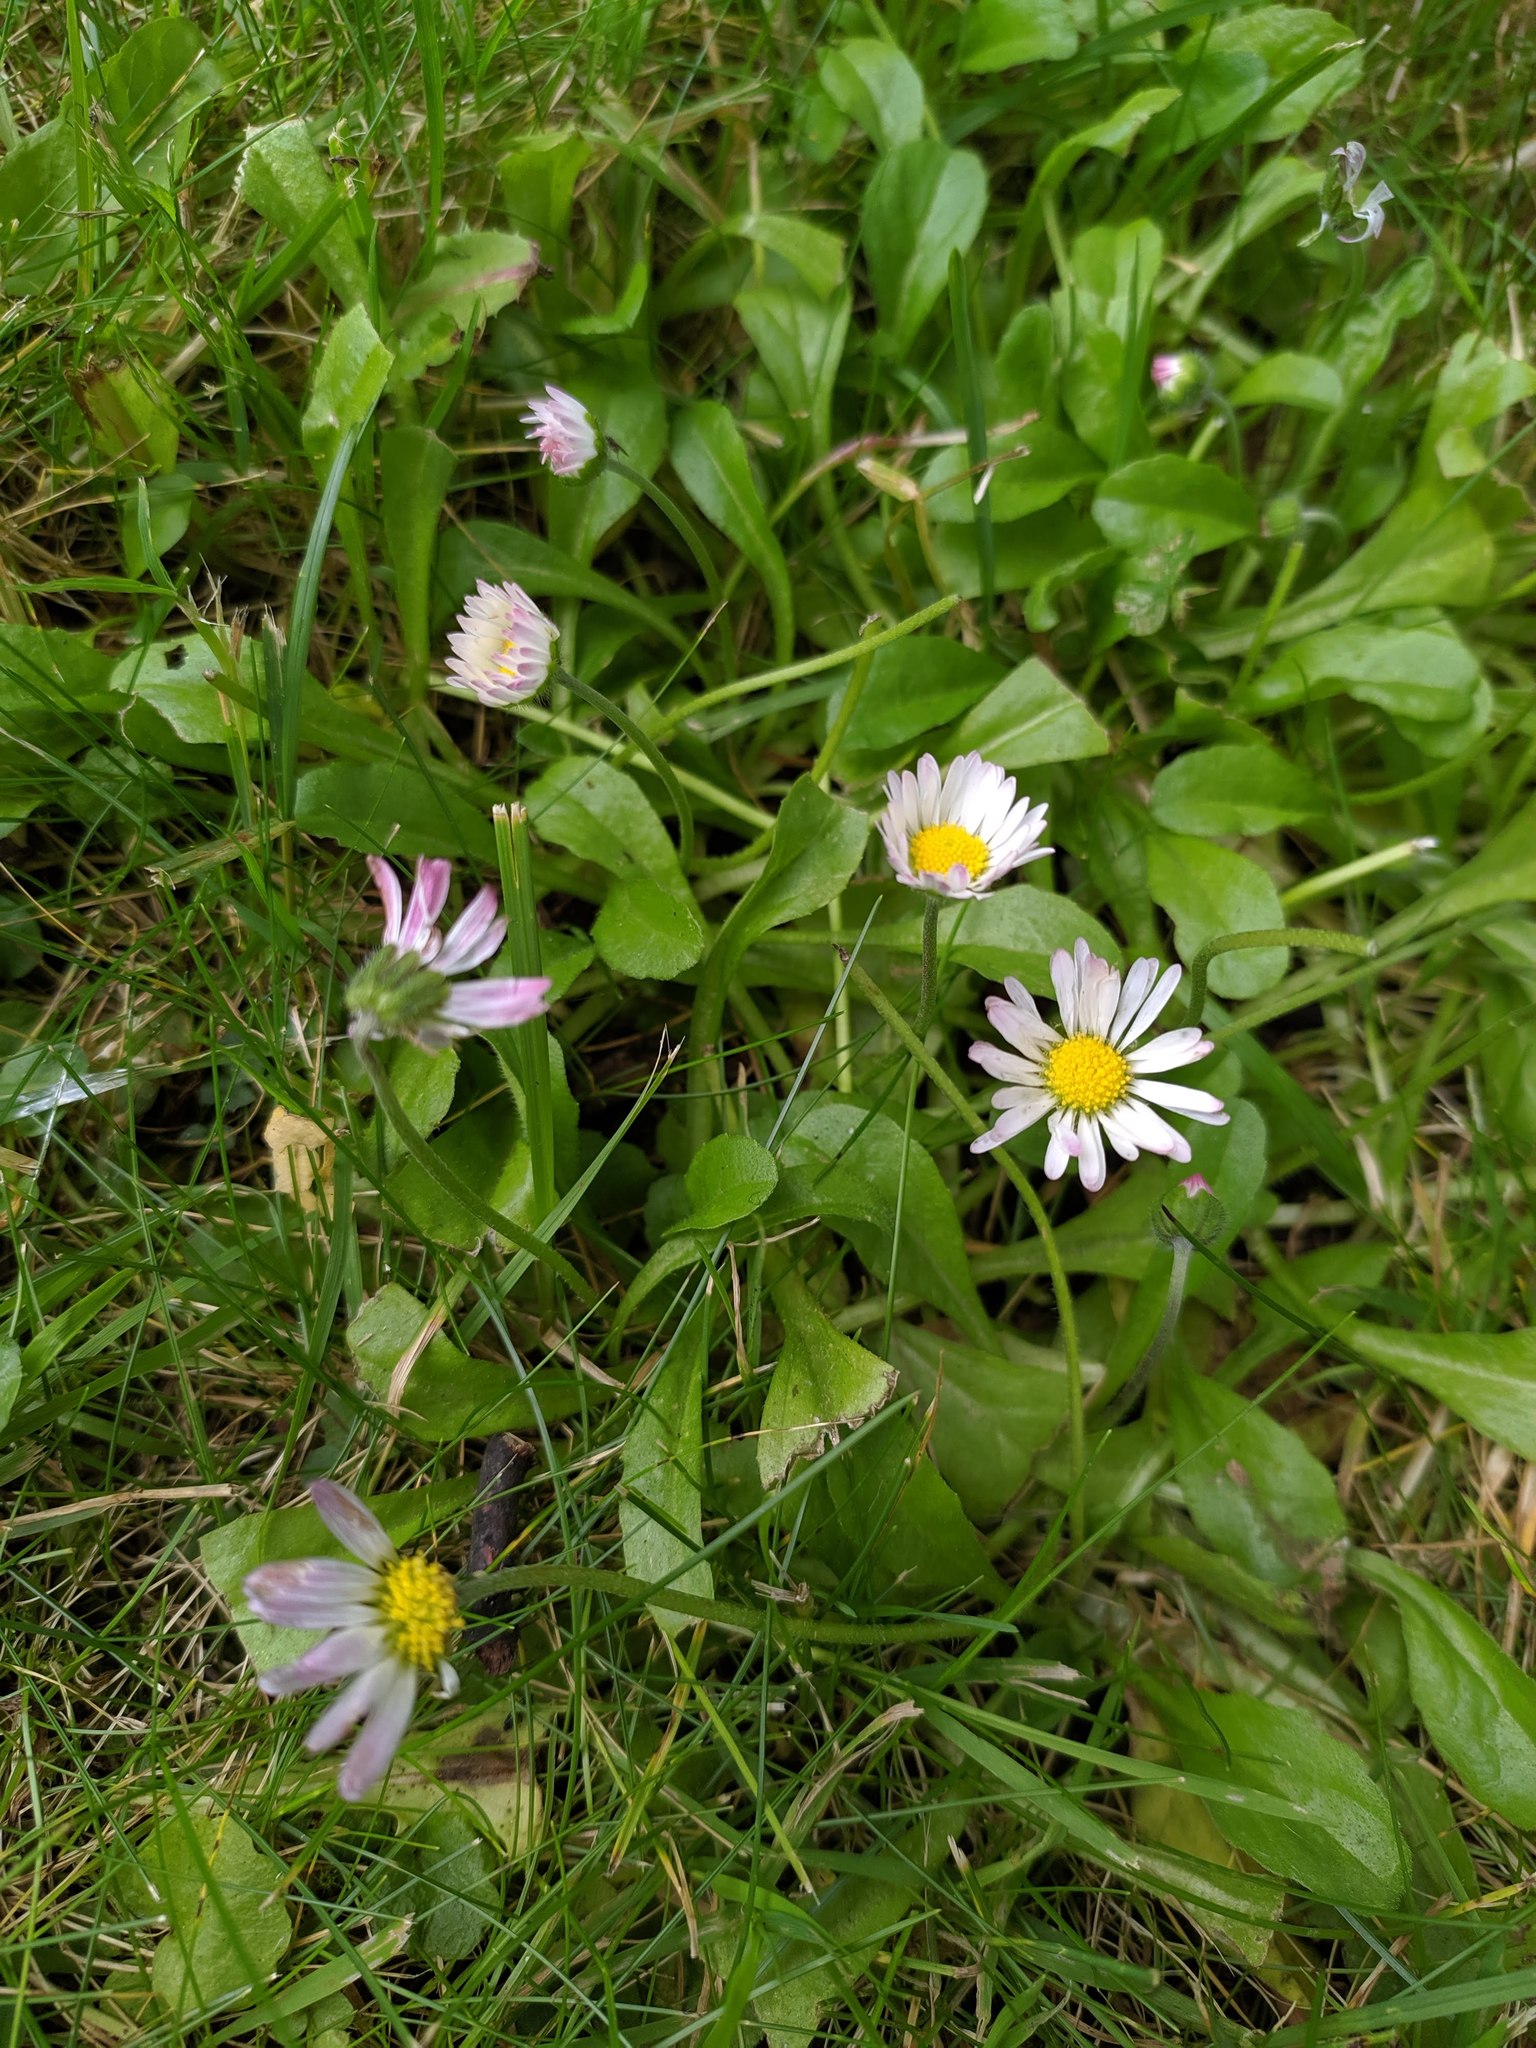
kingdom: Plantae
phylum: Tracheophyta
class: Magnoliopsida
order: Asterales
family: Asteraceae
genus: Bellis
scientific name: Bellis perennis
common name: Lawndaisy
